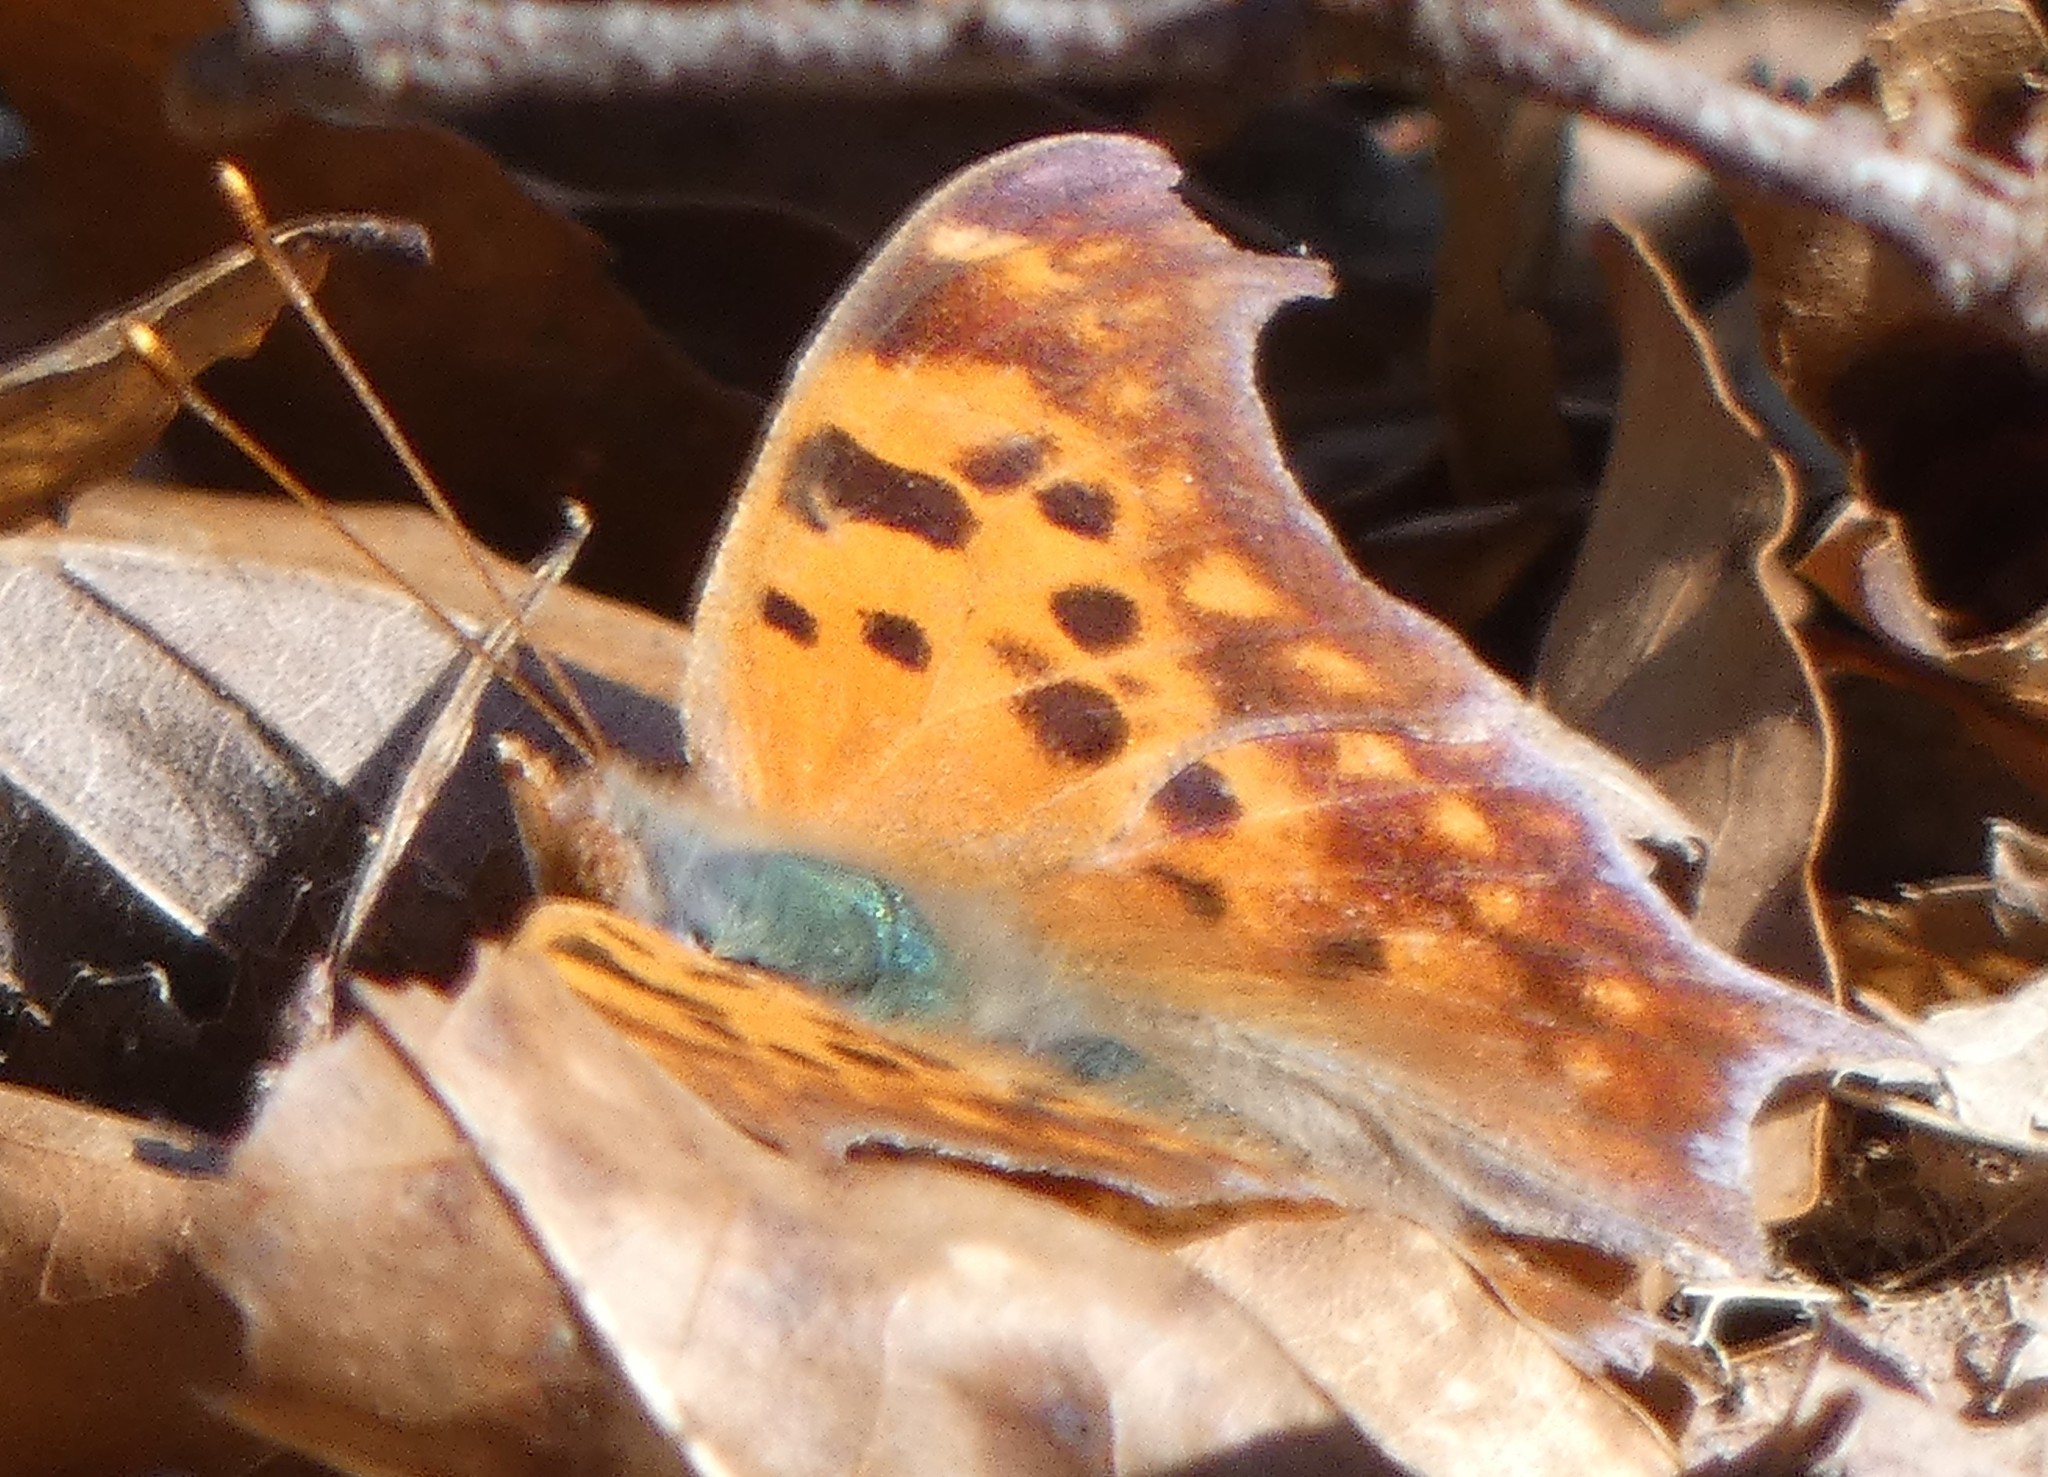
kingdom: Animalia
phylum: Arthropoda
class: Insecta
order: Lepidoptera
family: Nymphalidae
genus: Polygonia
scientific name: Polygonia interrogationis
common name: Question mark
